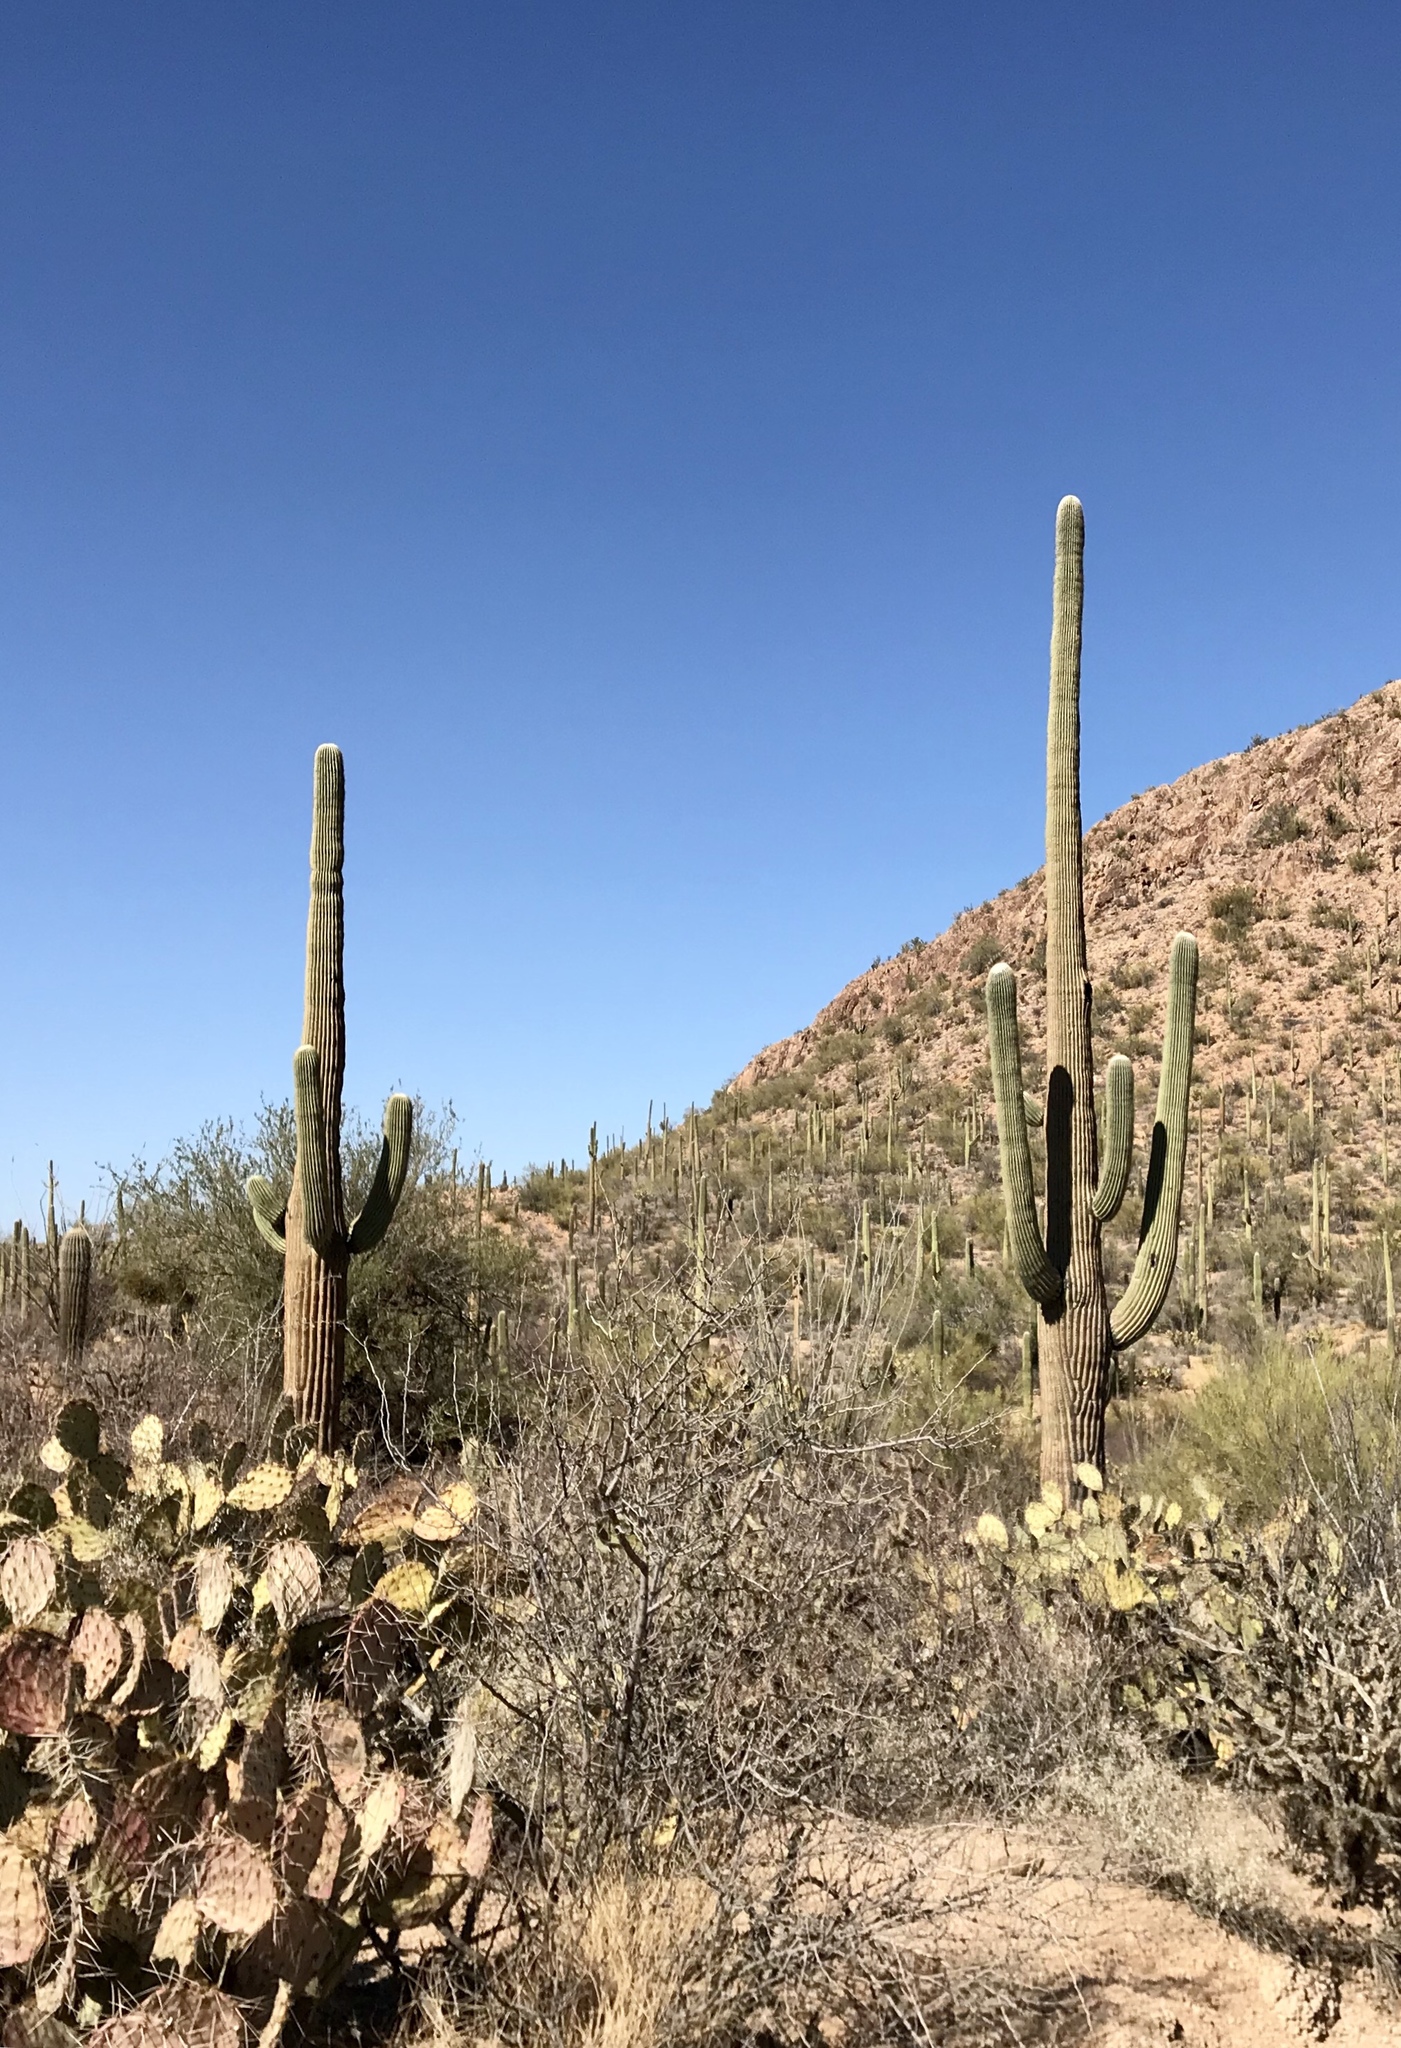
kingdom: Plantae
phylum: Tracheophyta
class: Magnoliopsida
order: Caryophyllales
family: Cactaceae
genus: Carnegiea
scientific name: Carnegiea gigantea
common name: Saguaro
